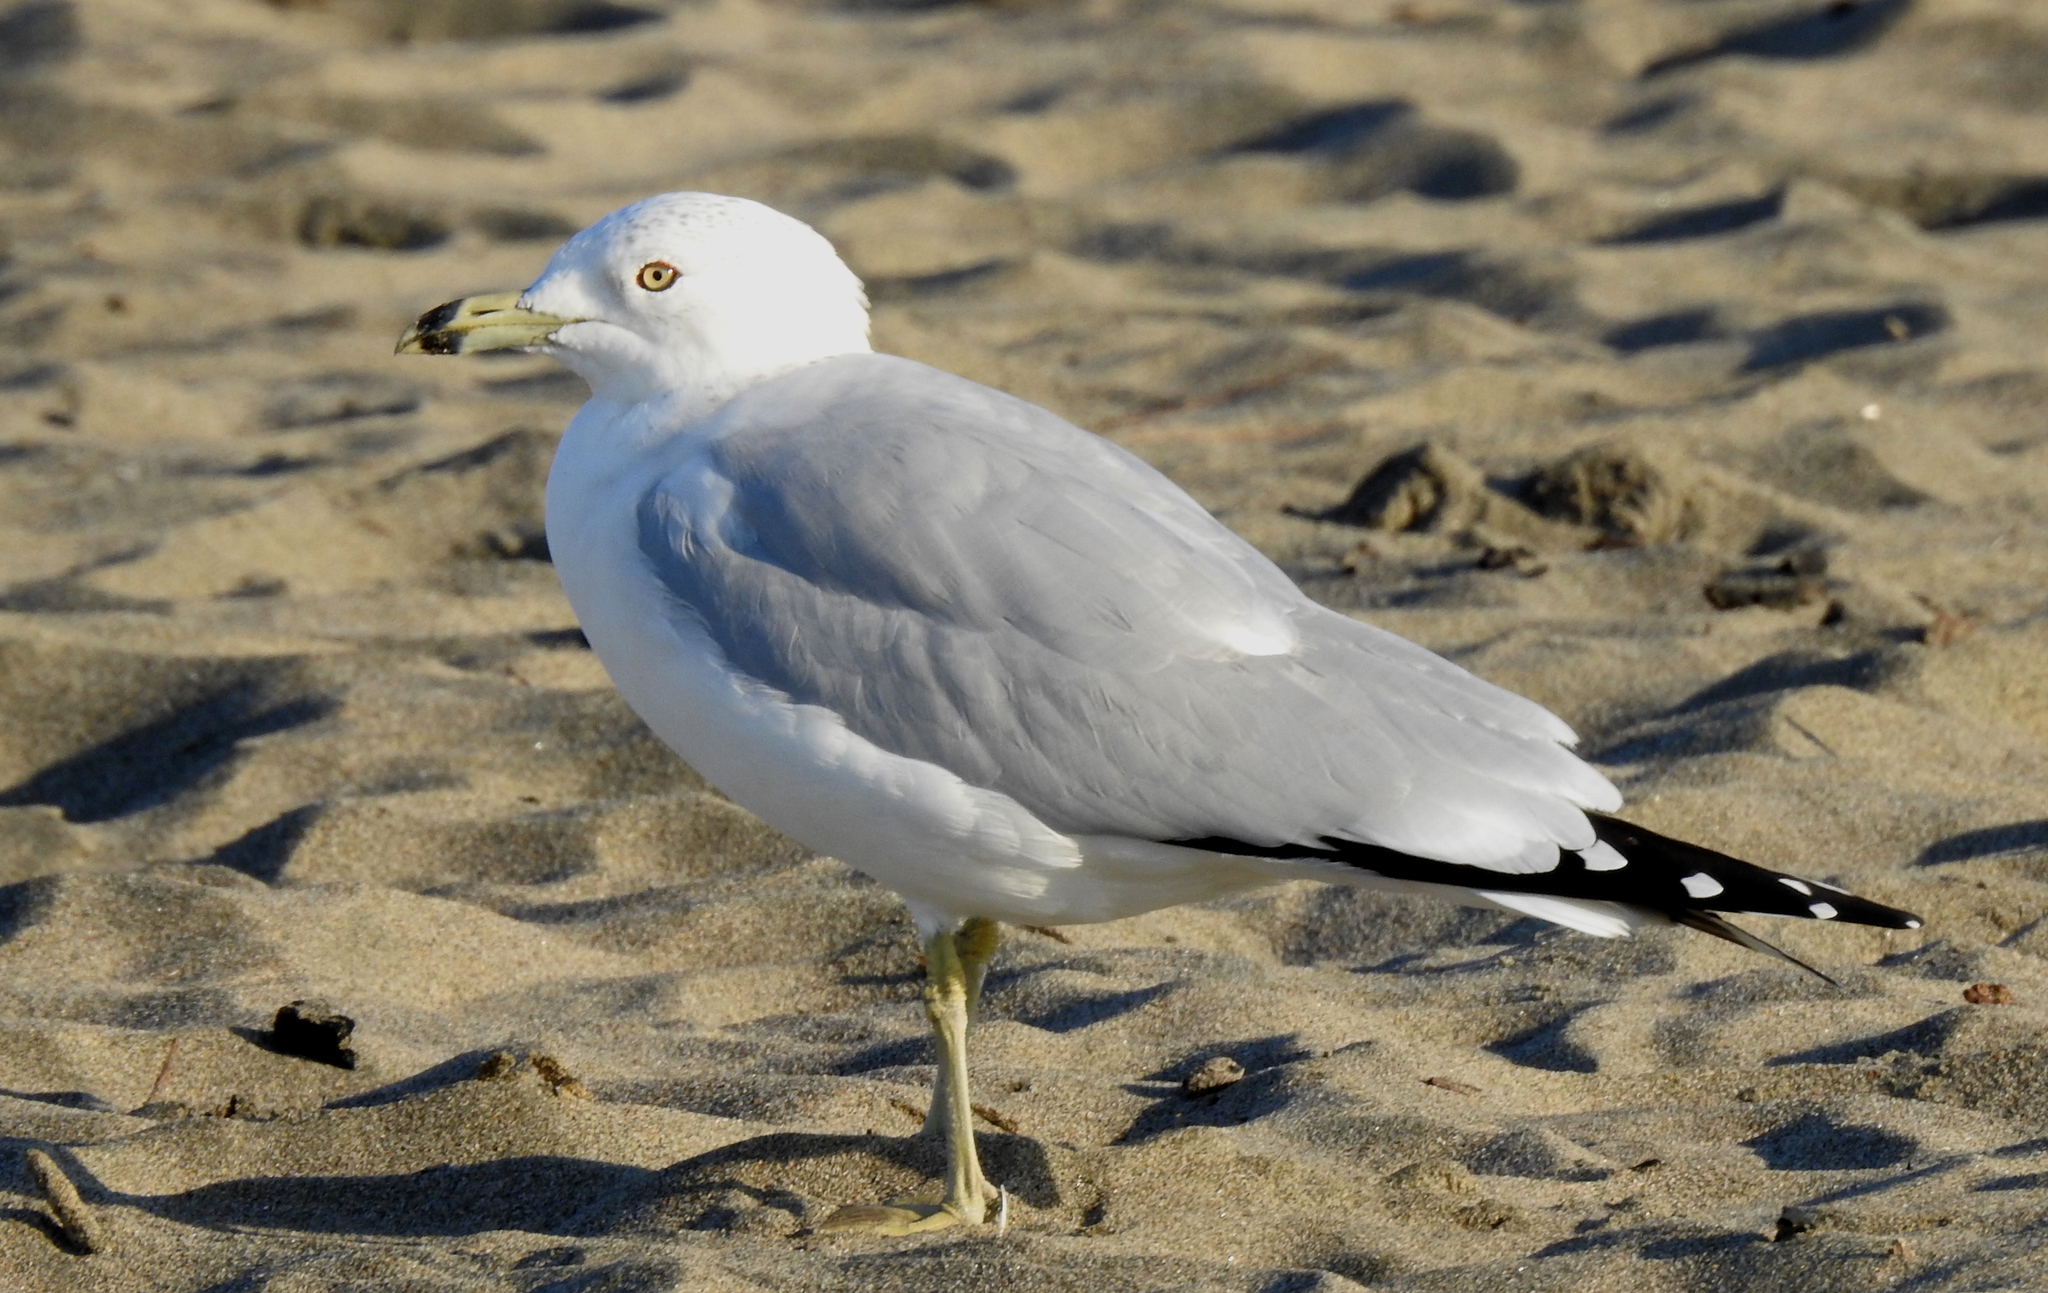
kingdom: Animalia
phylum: Chordata
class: Aves
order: Charadriiformes
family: Laridae
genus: Larus
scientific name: Larus delawarensis
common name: Ring-billed gull
